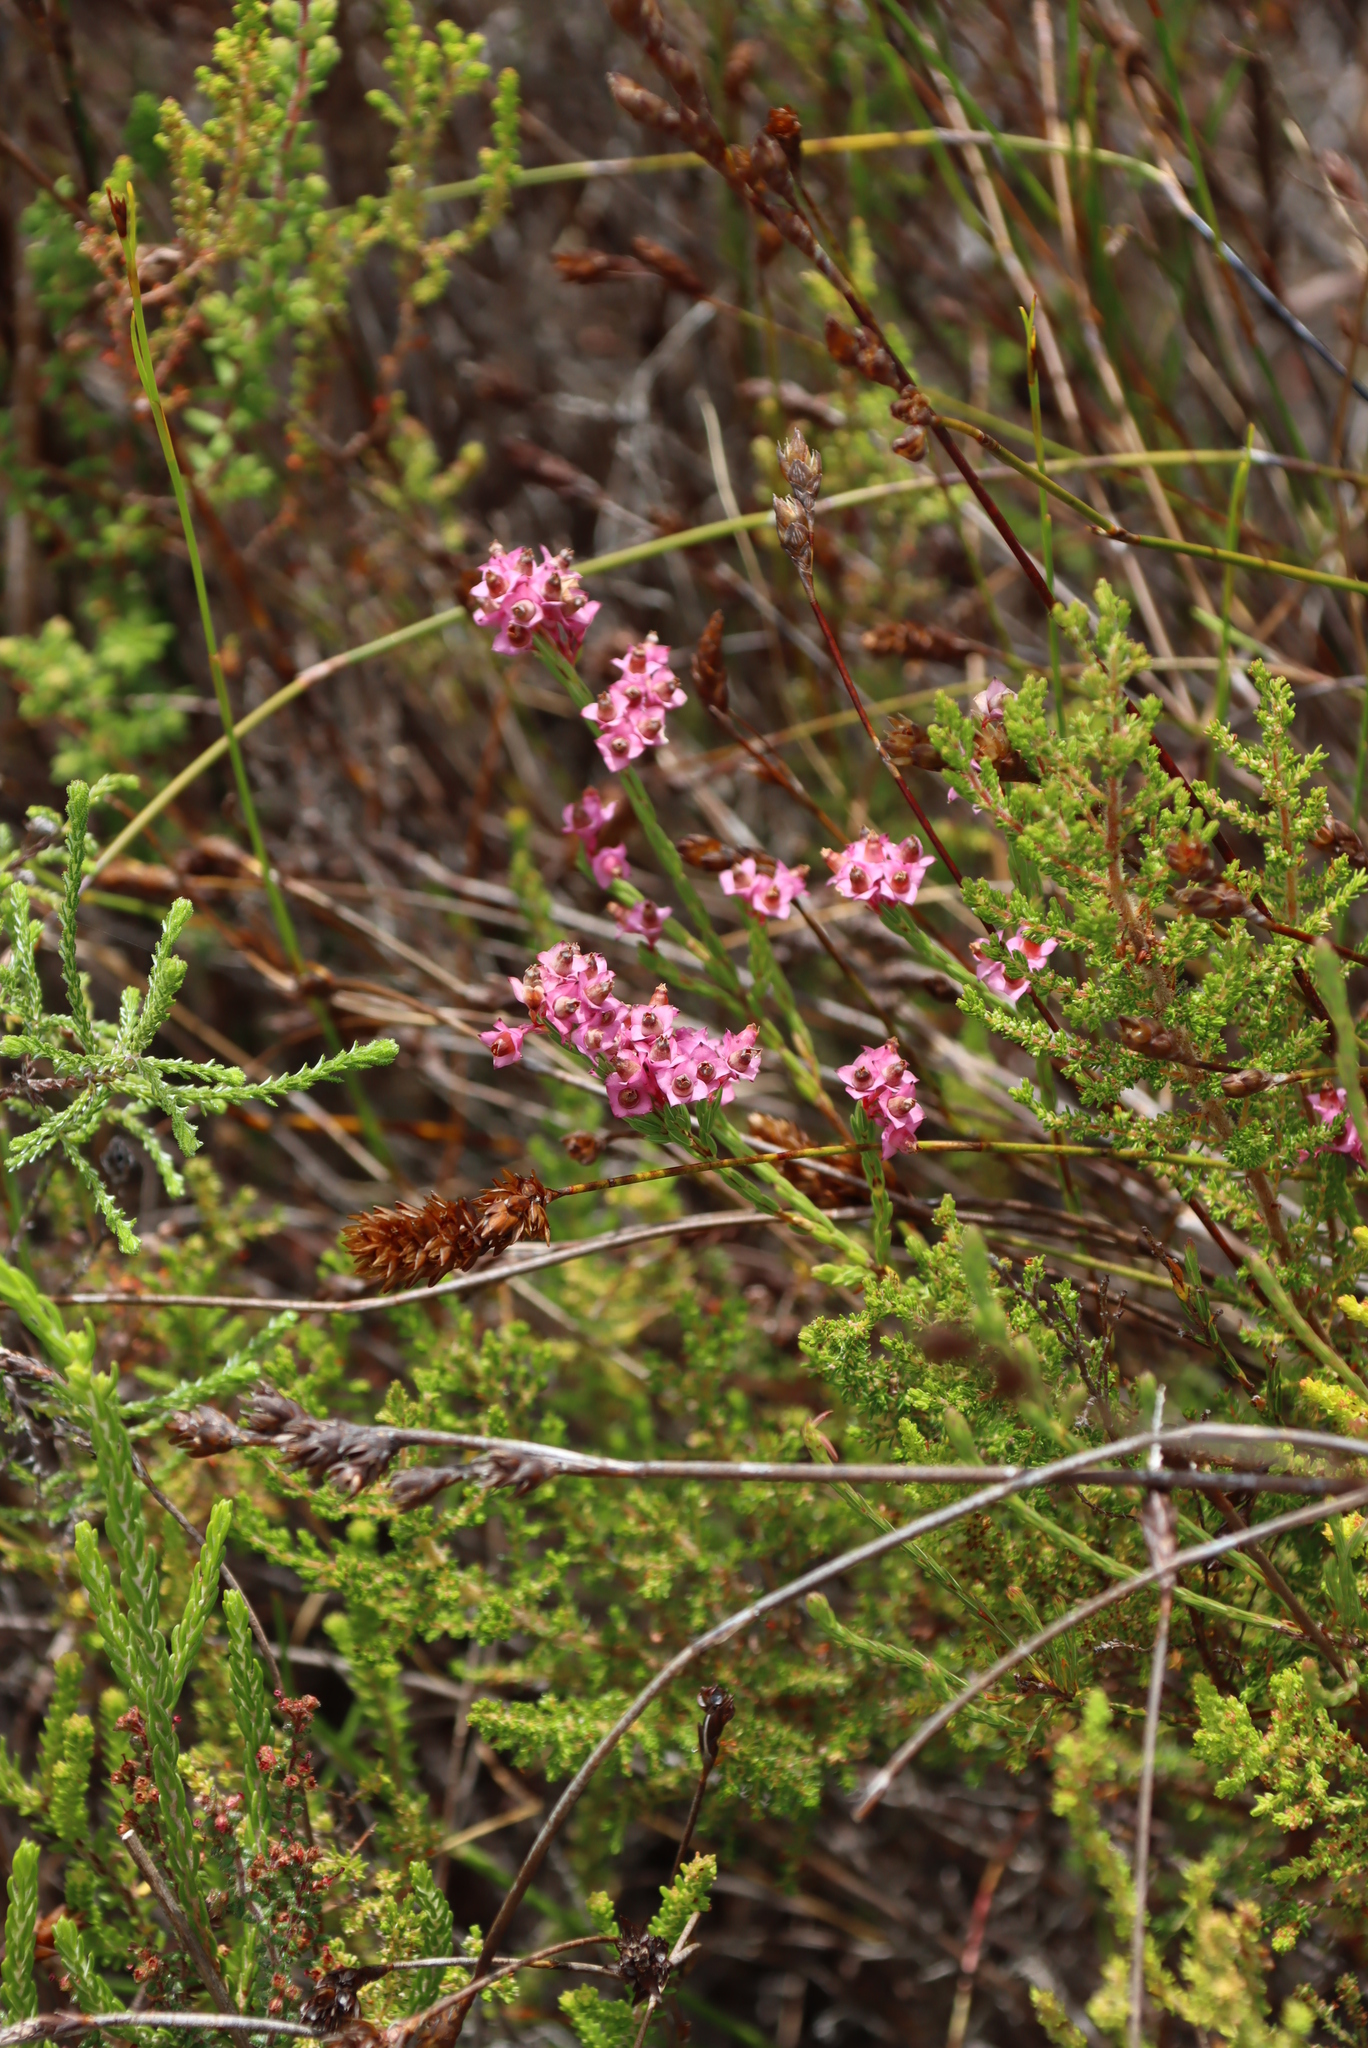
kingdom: Plantae
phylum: Tracheophyta
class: Magnoliopsida
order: Ericales
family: Ericaceae
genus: Erica
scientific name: Erica corifolia
